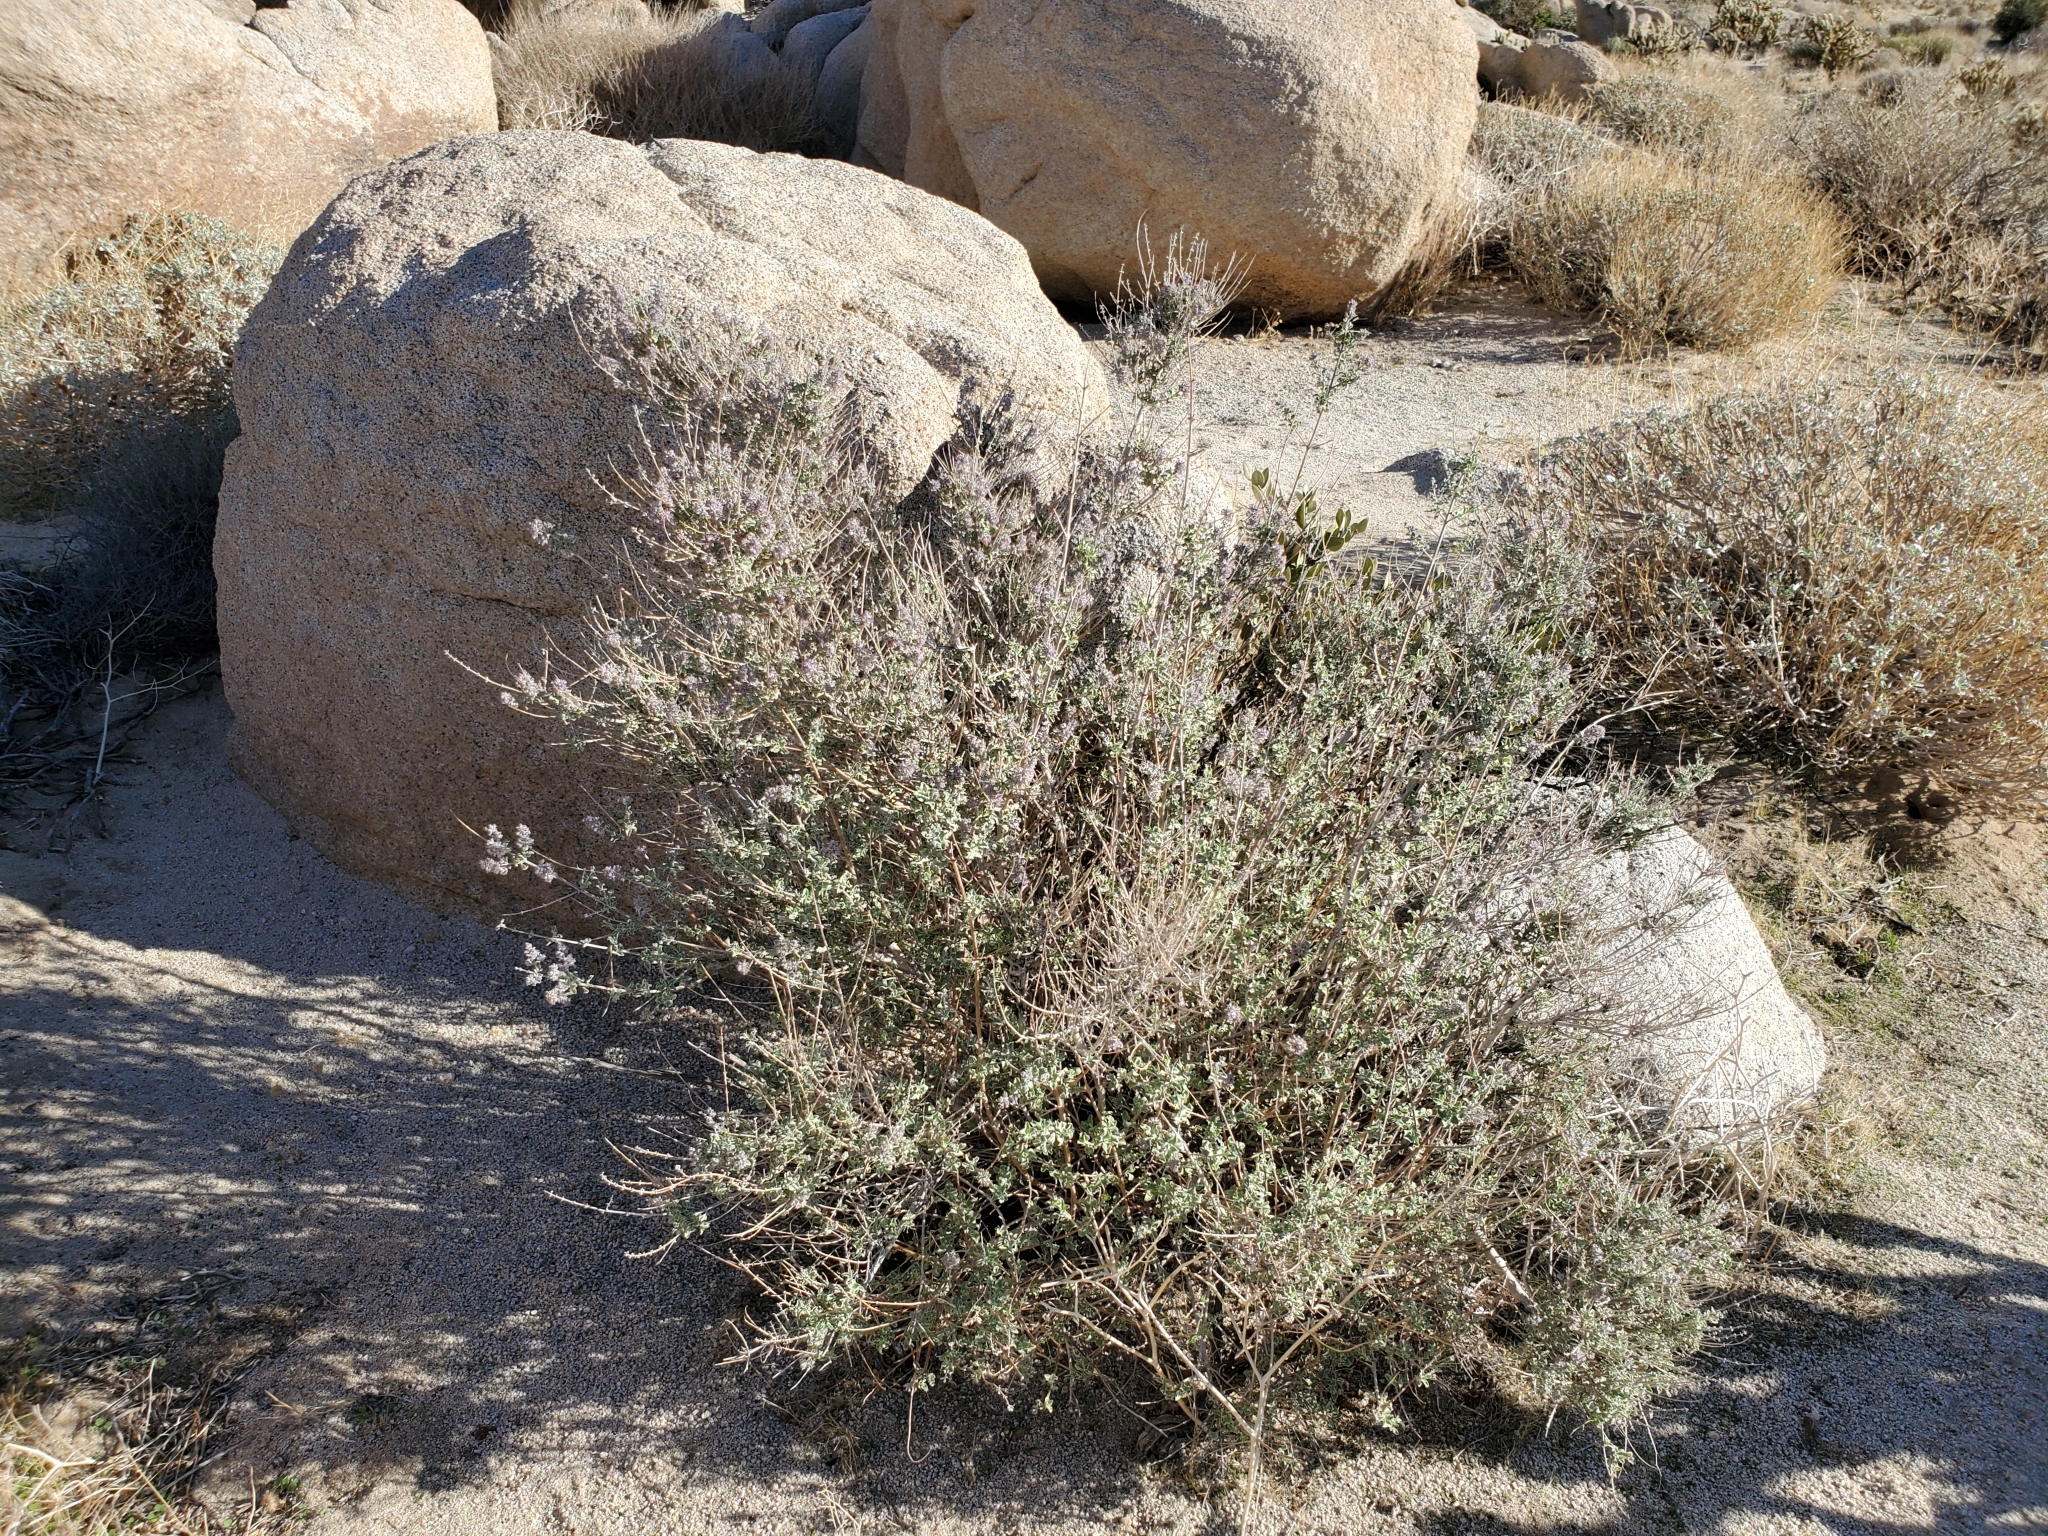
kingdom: Plantae
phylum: Tracheophyta
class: Magnoliopsida
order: Lamiales
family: Lamiaceae
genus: Condea
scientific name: Condea emoryi
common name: Chia
